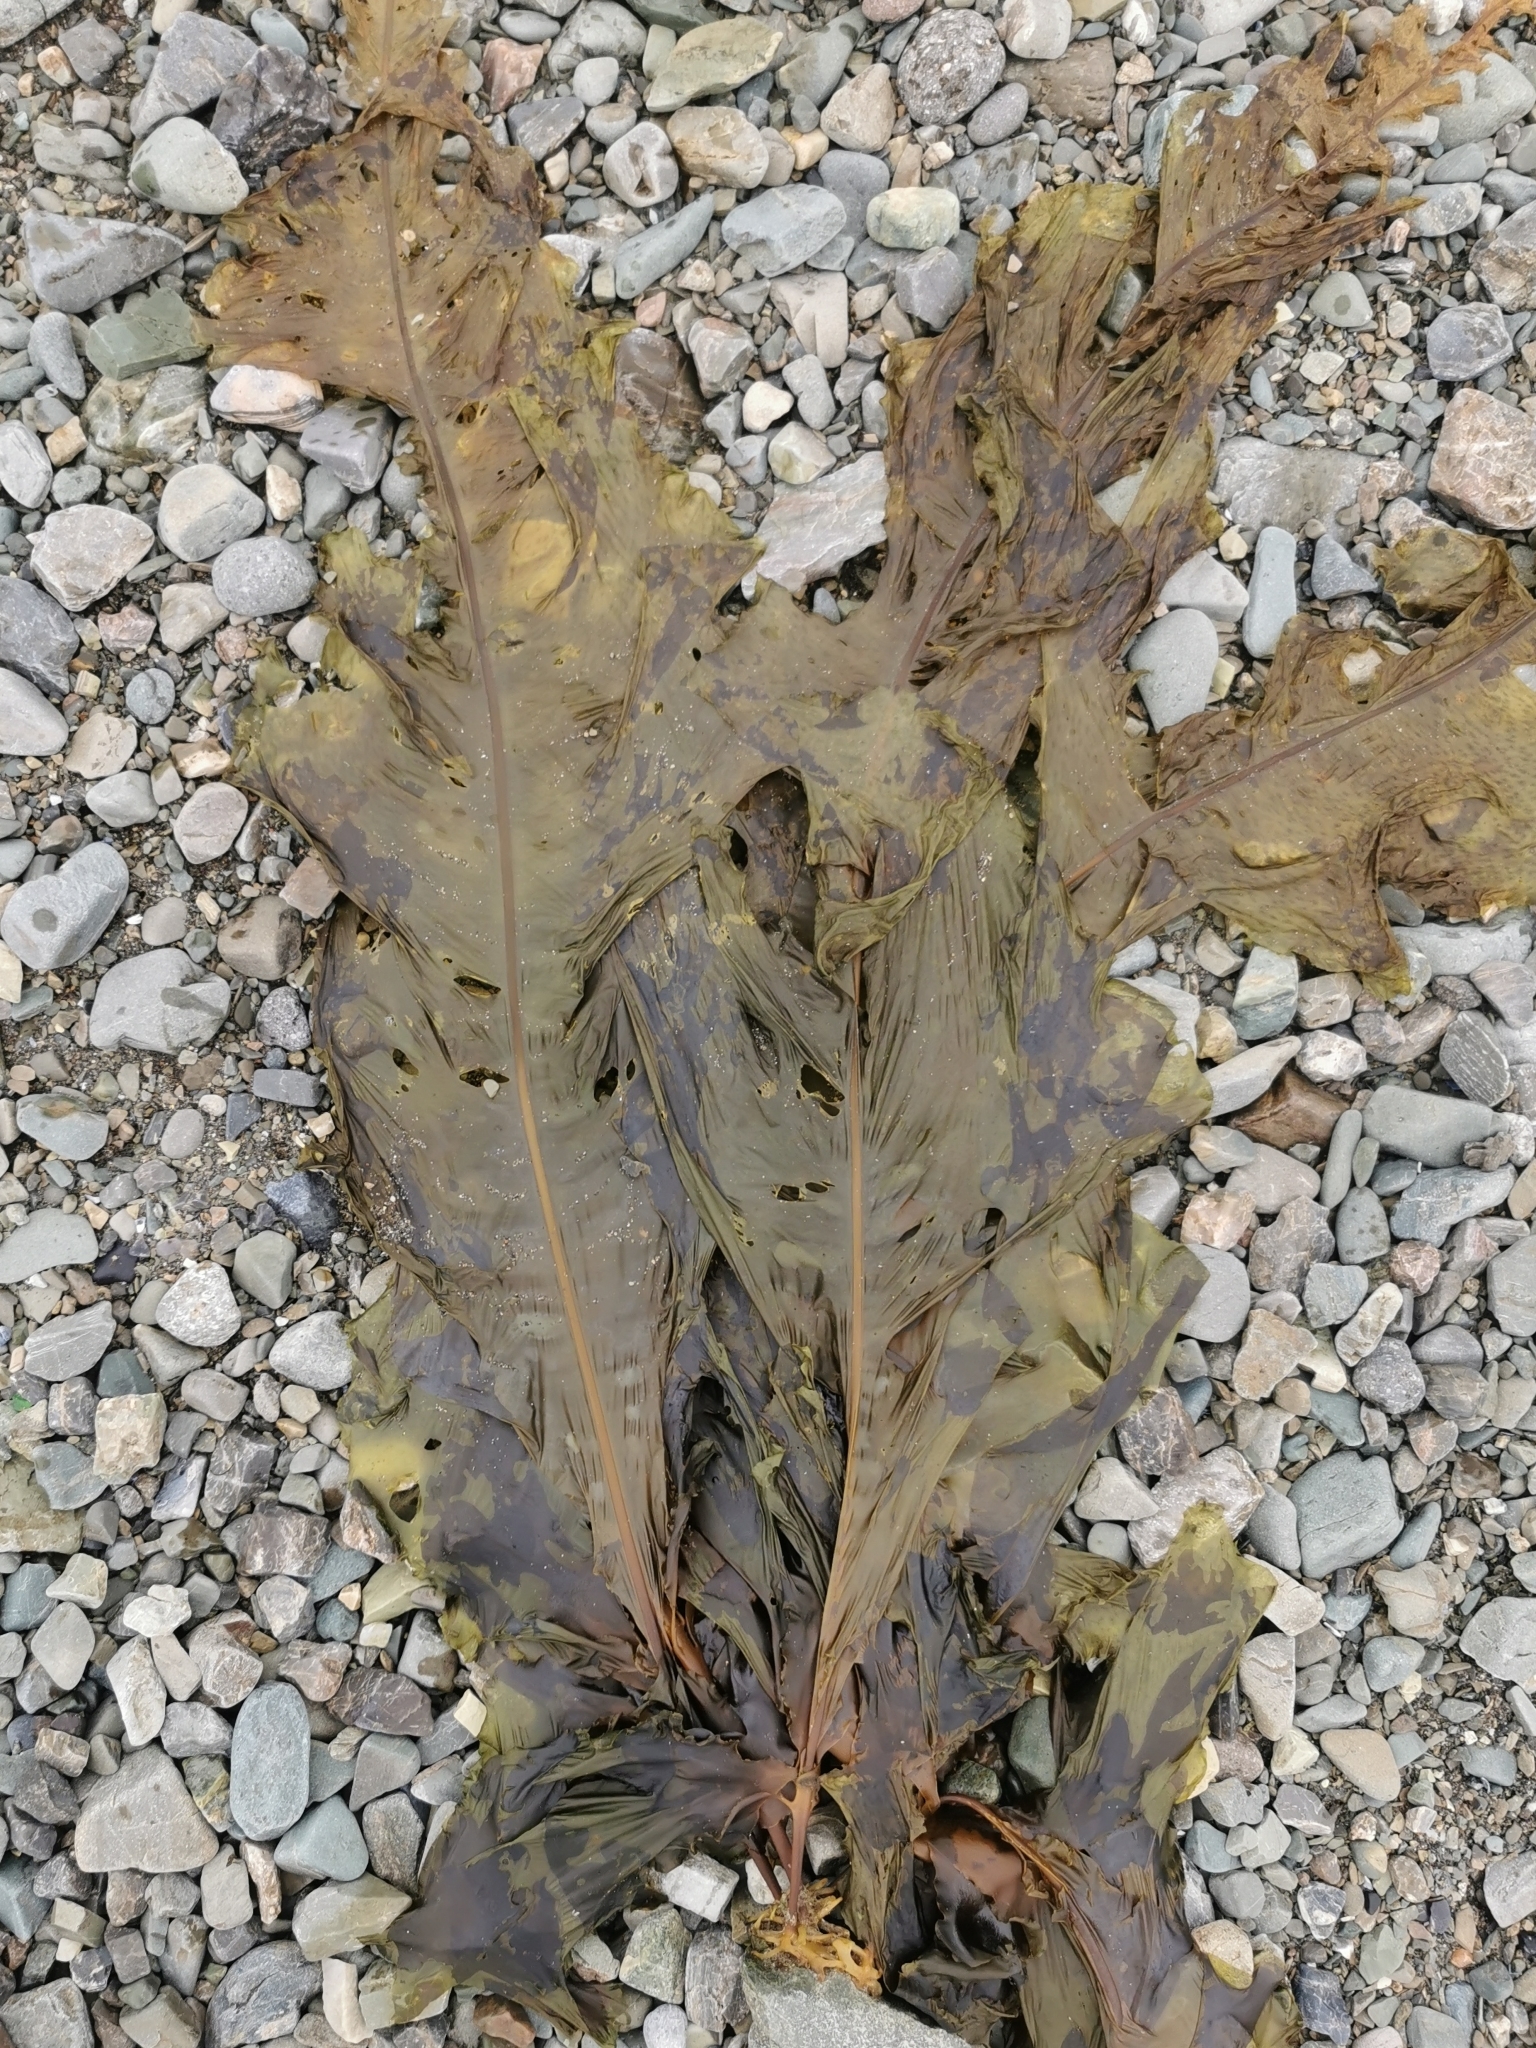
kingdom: Chromista
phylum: Ochrophyta
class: Phaeophyceae
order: Laminariales
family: Alariaceae
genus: Alaria
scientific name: Alaria esculenta
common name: Dabberlocks
